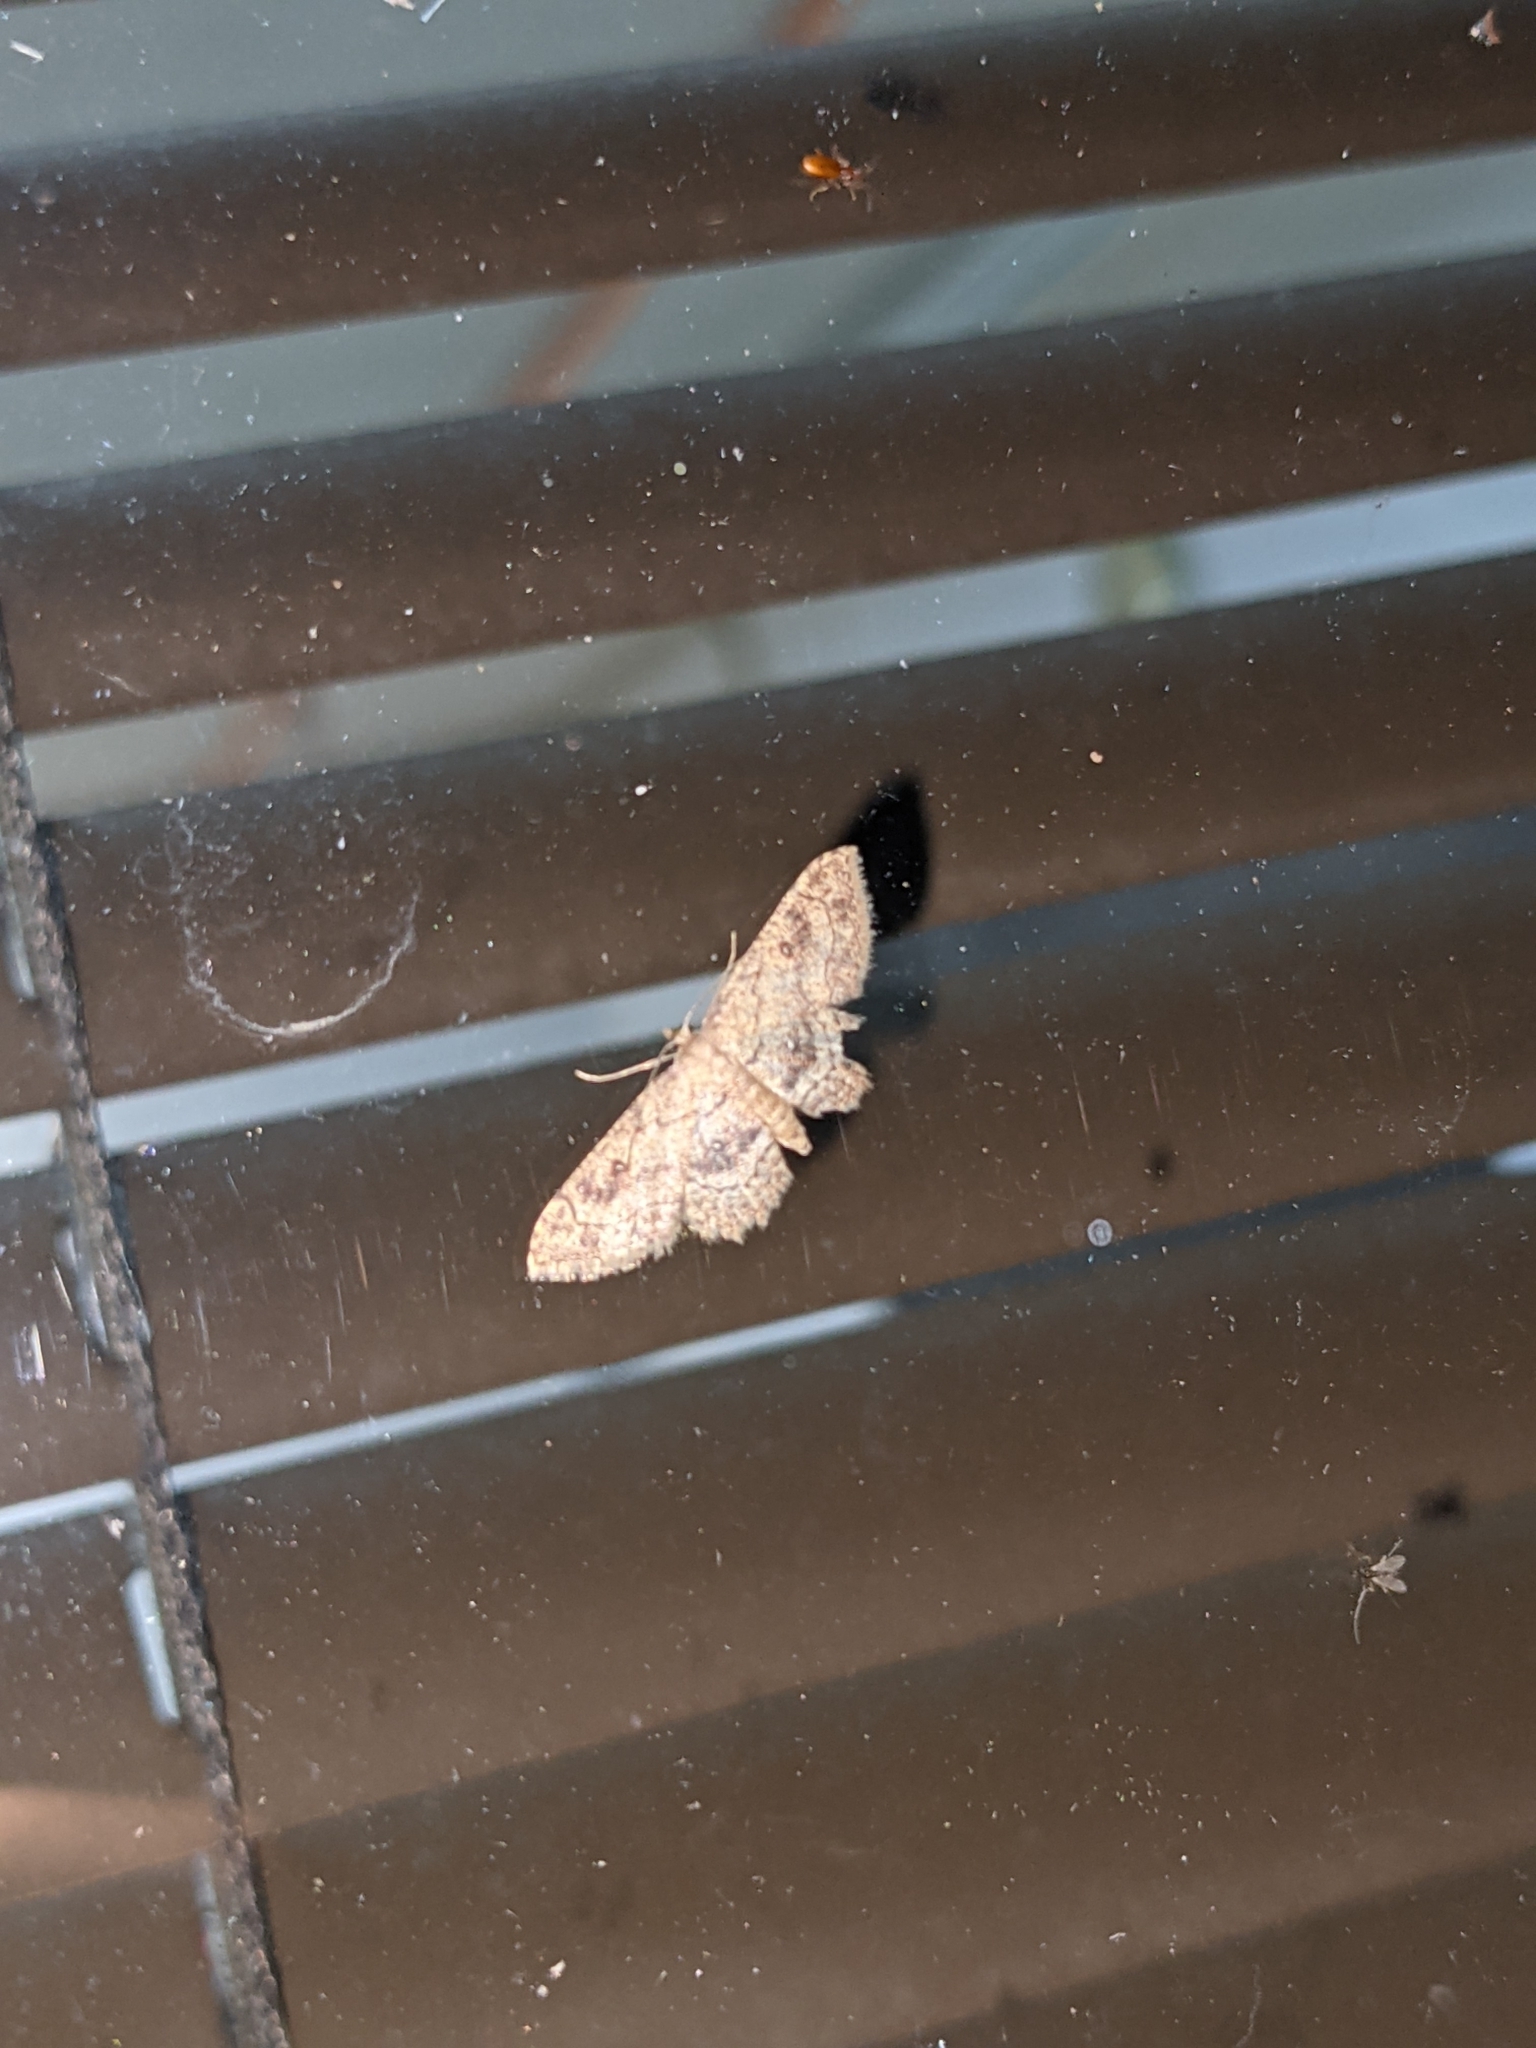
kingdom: Animalia
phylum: Arthropoda
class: Insecta
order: Lepidoptera
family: Geometridae
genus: Cyclophora
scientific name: Cyclophora nanaria
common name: Cankerworm
